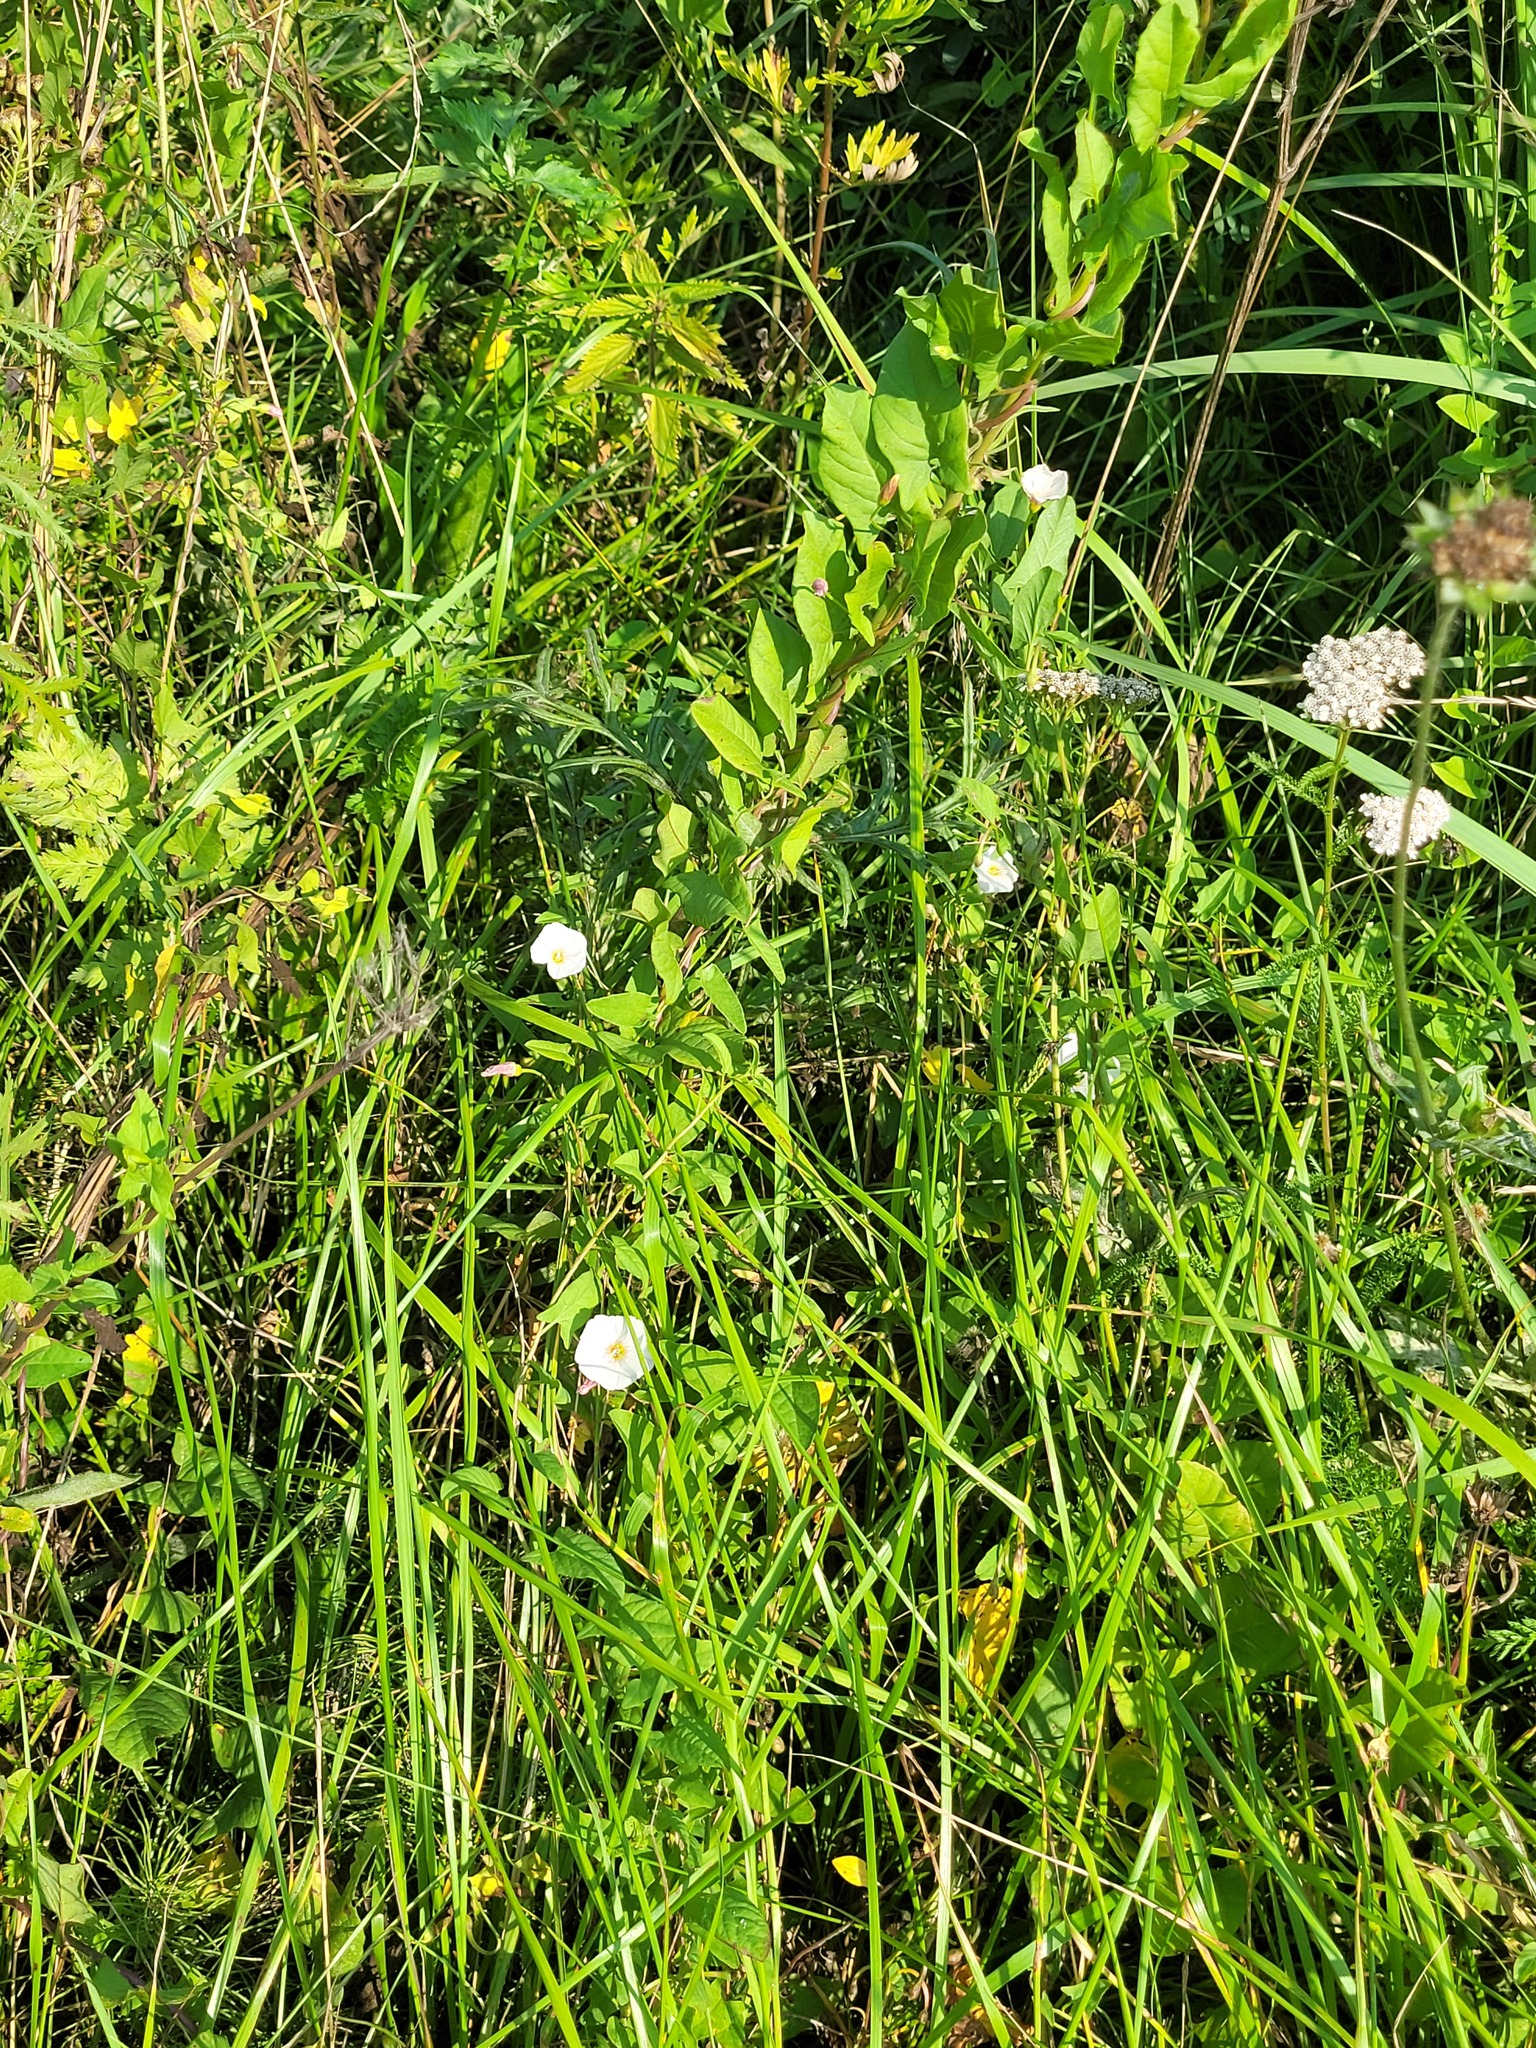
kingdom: Plantae
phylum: Tracheophyta
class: Magnoliopsida
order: Solanales
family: Convolvulaceae
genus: Convolvulus
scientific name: Convolvulus arvensis
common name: Field bindweed
